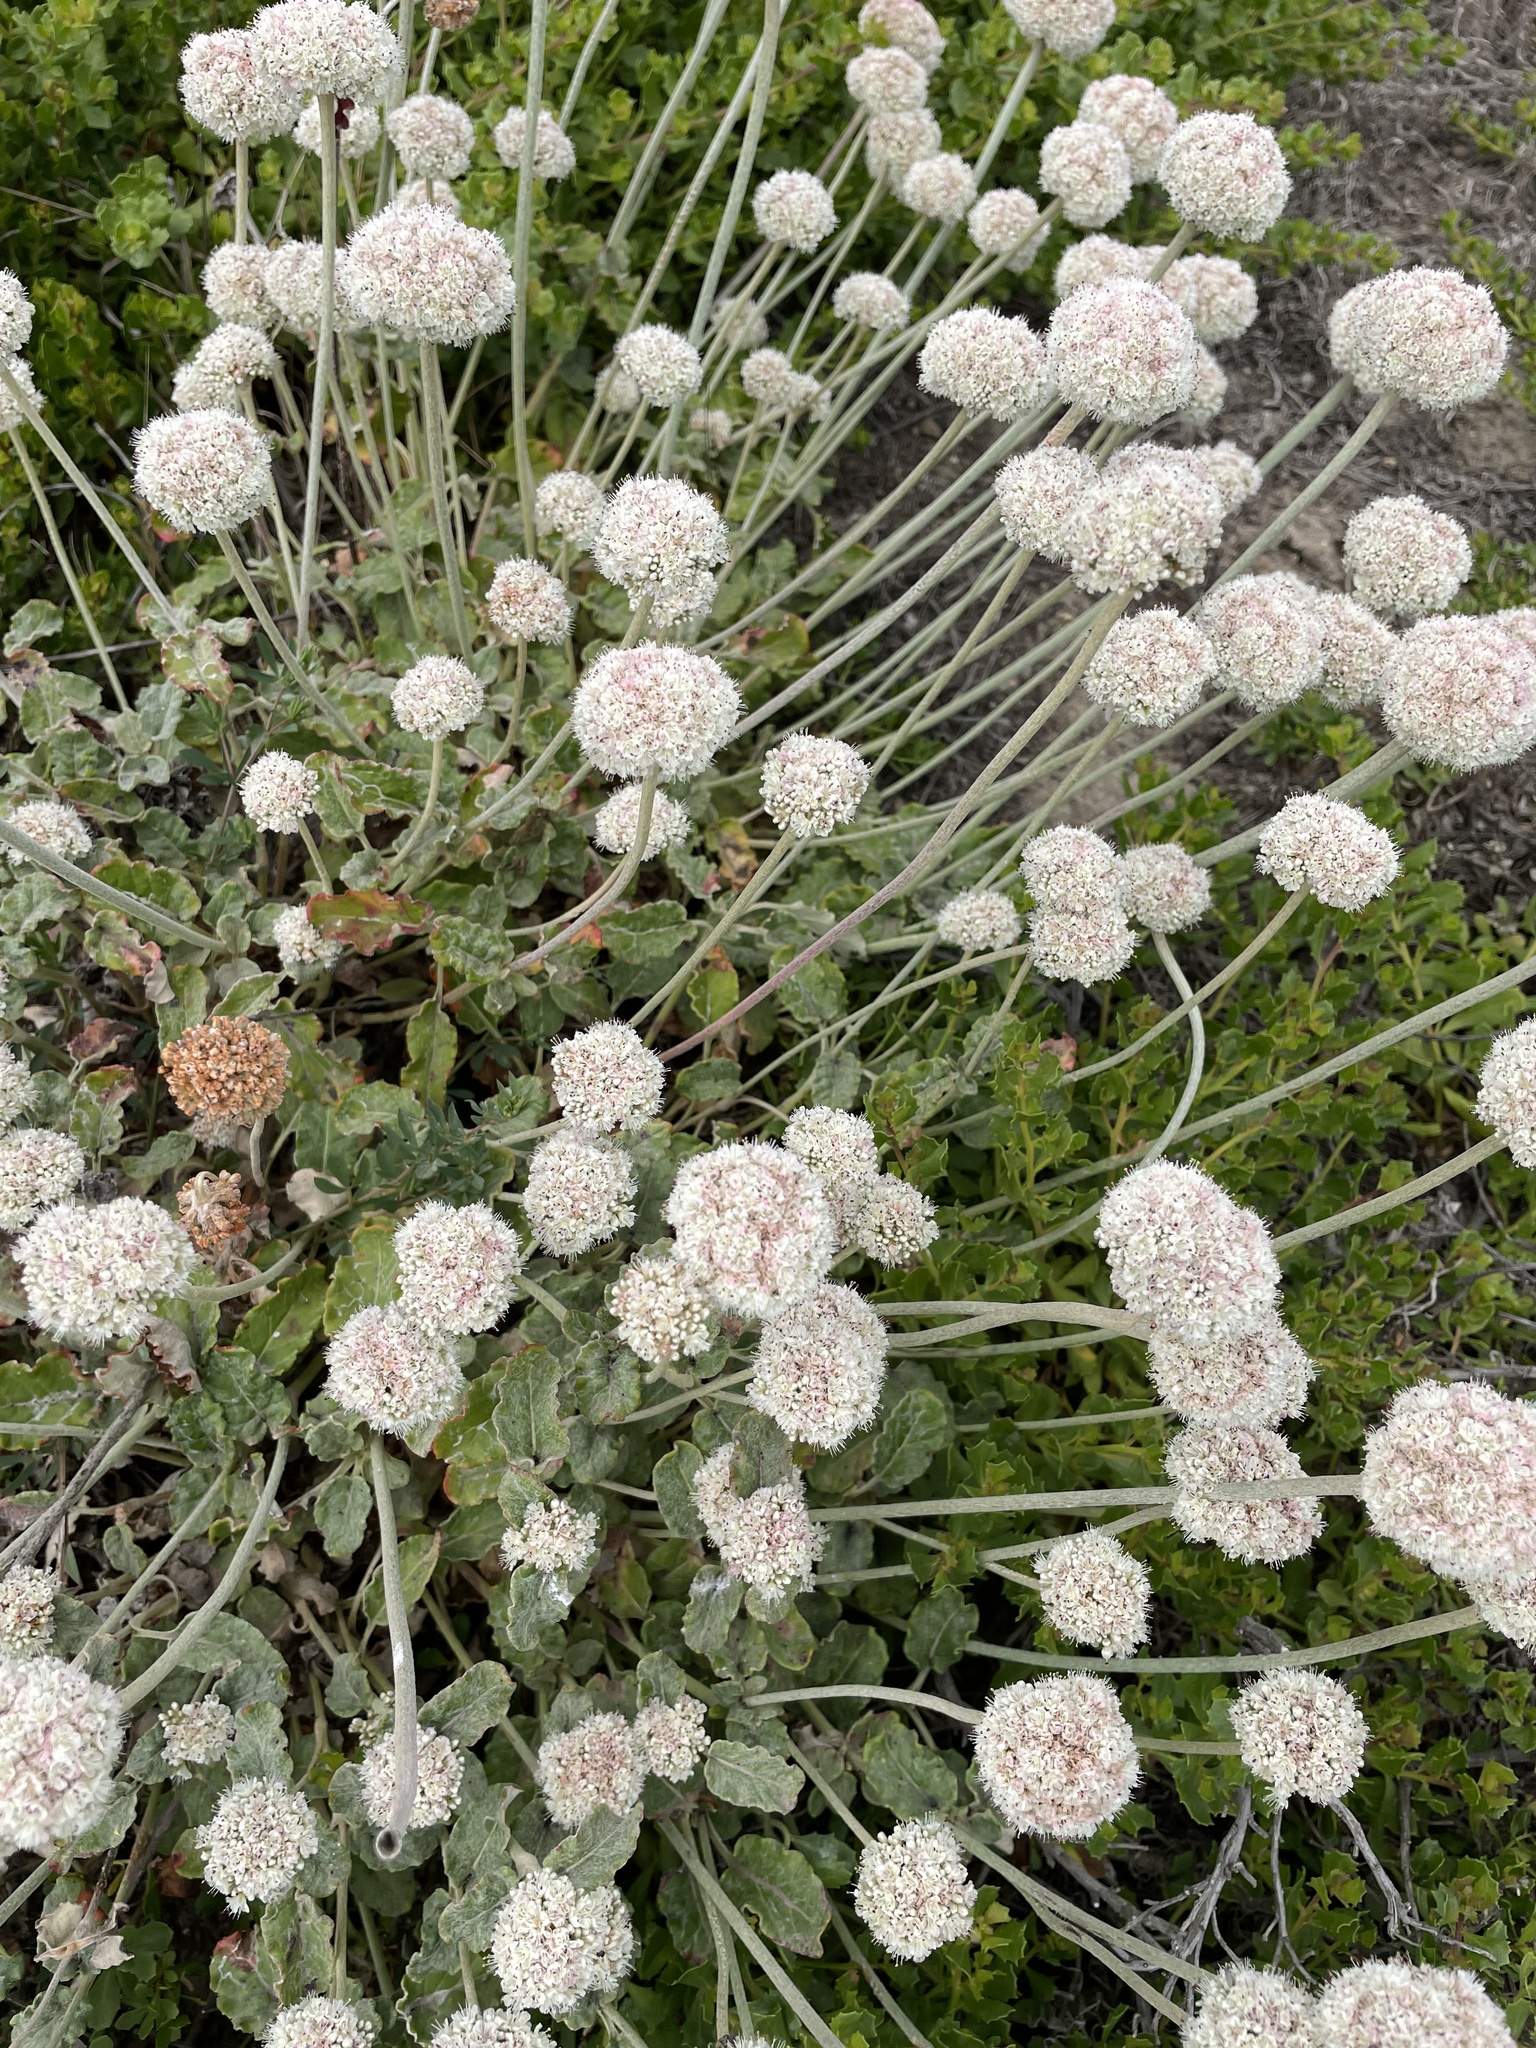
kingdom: Plantae
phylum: Tracheophyta
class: Magnoliopsida
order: Caryophyllales
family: Polygonaceae
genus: Eriogonum
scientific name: Eriogonum latifolium
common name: Seaside wild buckwheat
